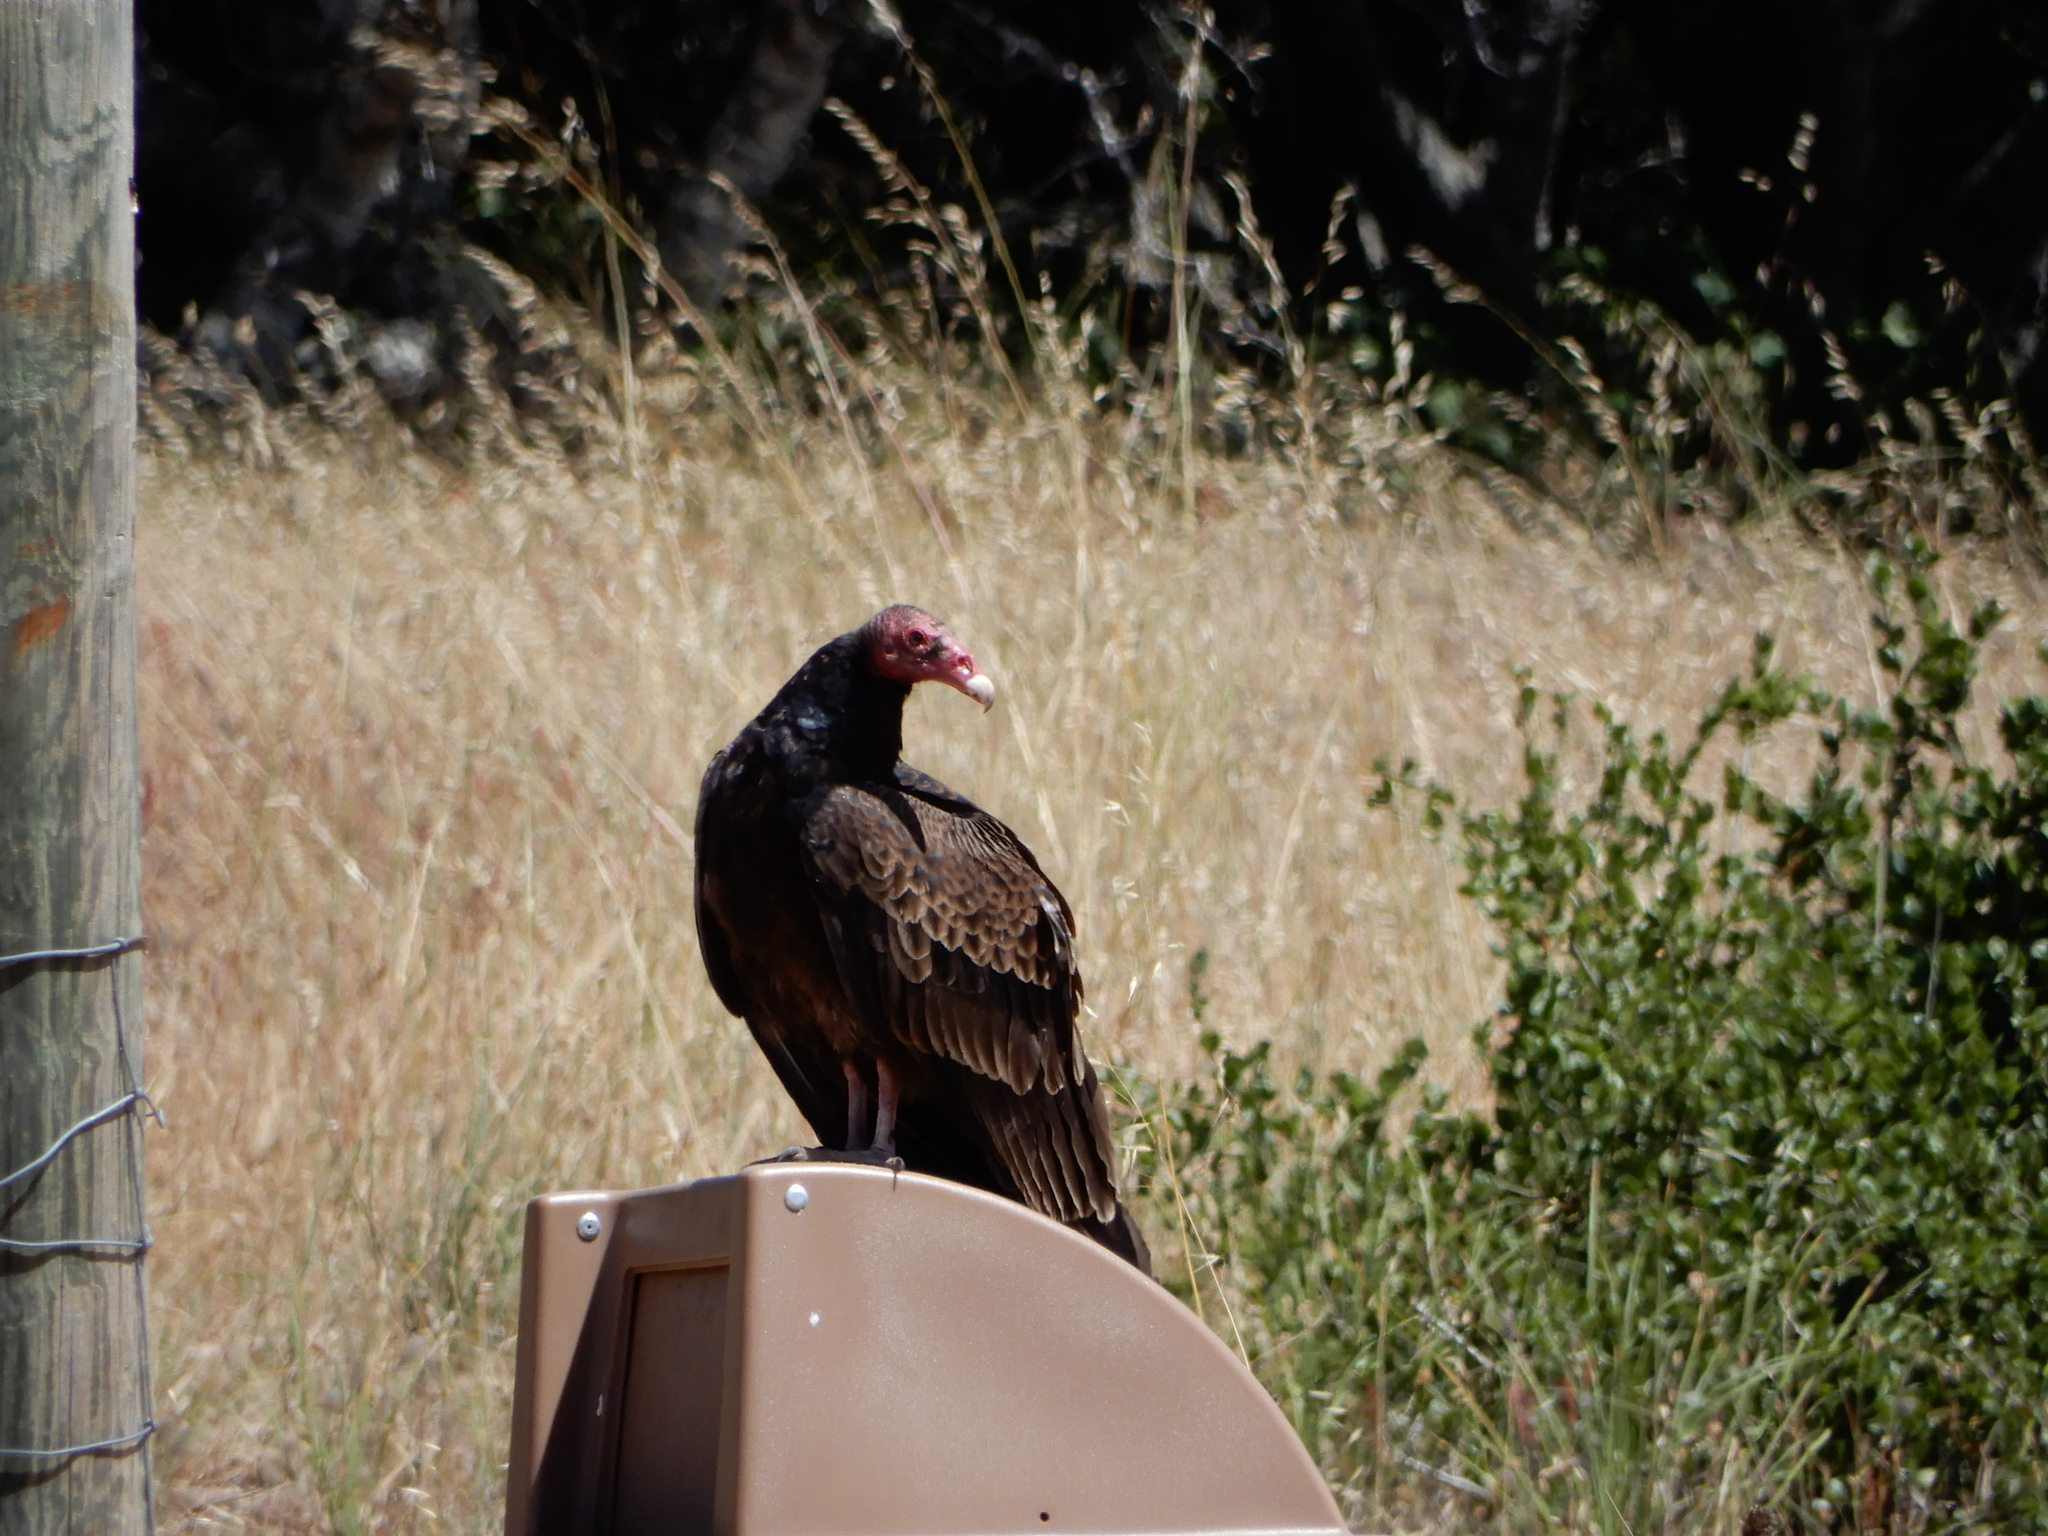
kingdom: Animalia
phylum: Chordata
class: Aves
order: Accipitriformes
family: Cathartidae
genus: Cathartes
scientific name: Cathartes aura
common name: Turkey vulture
